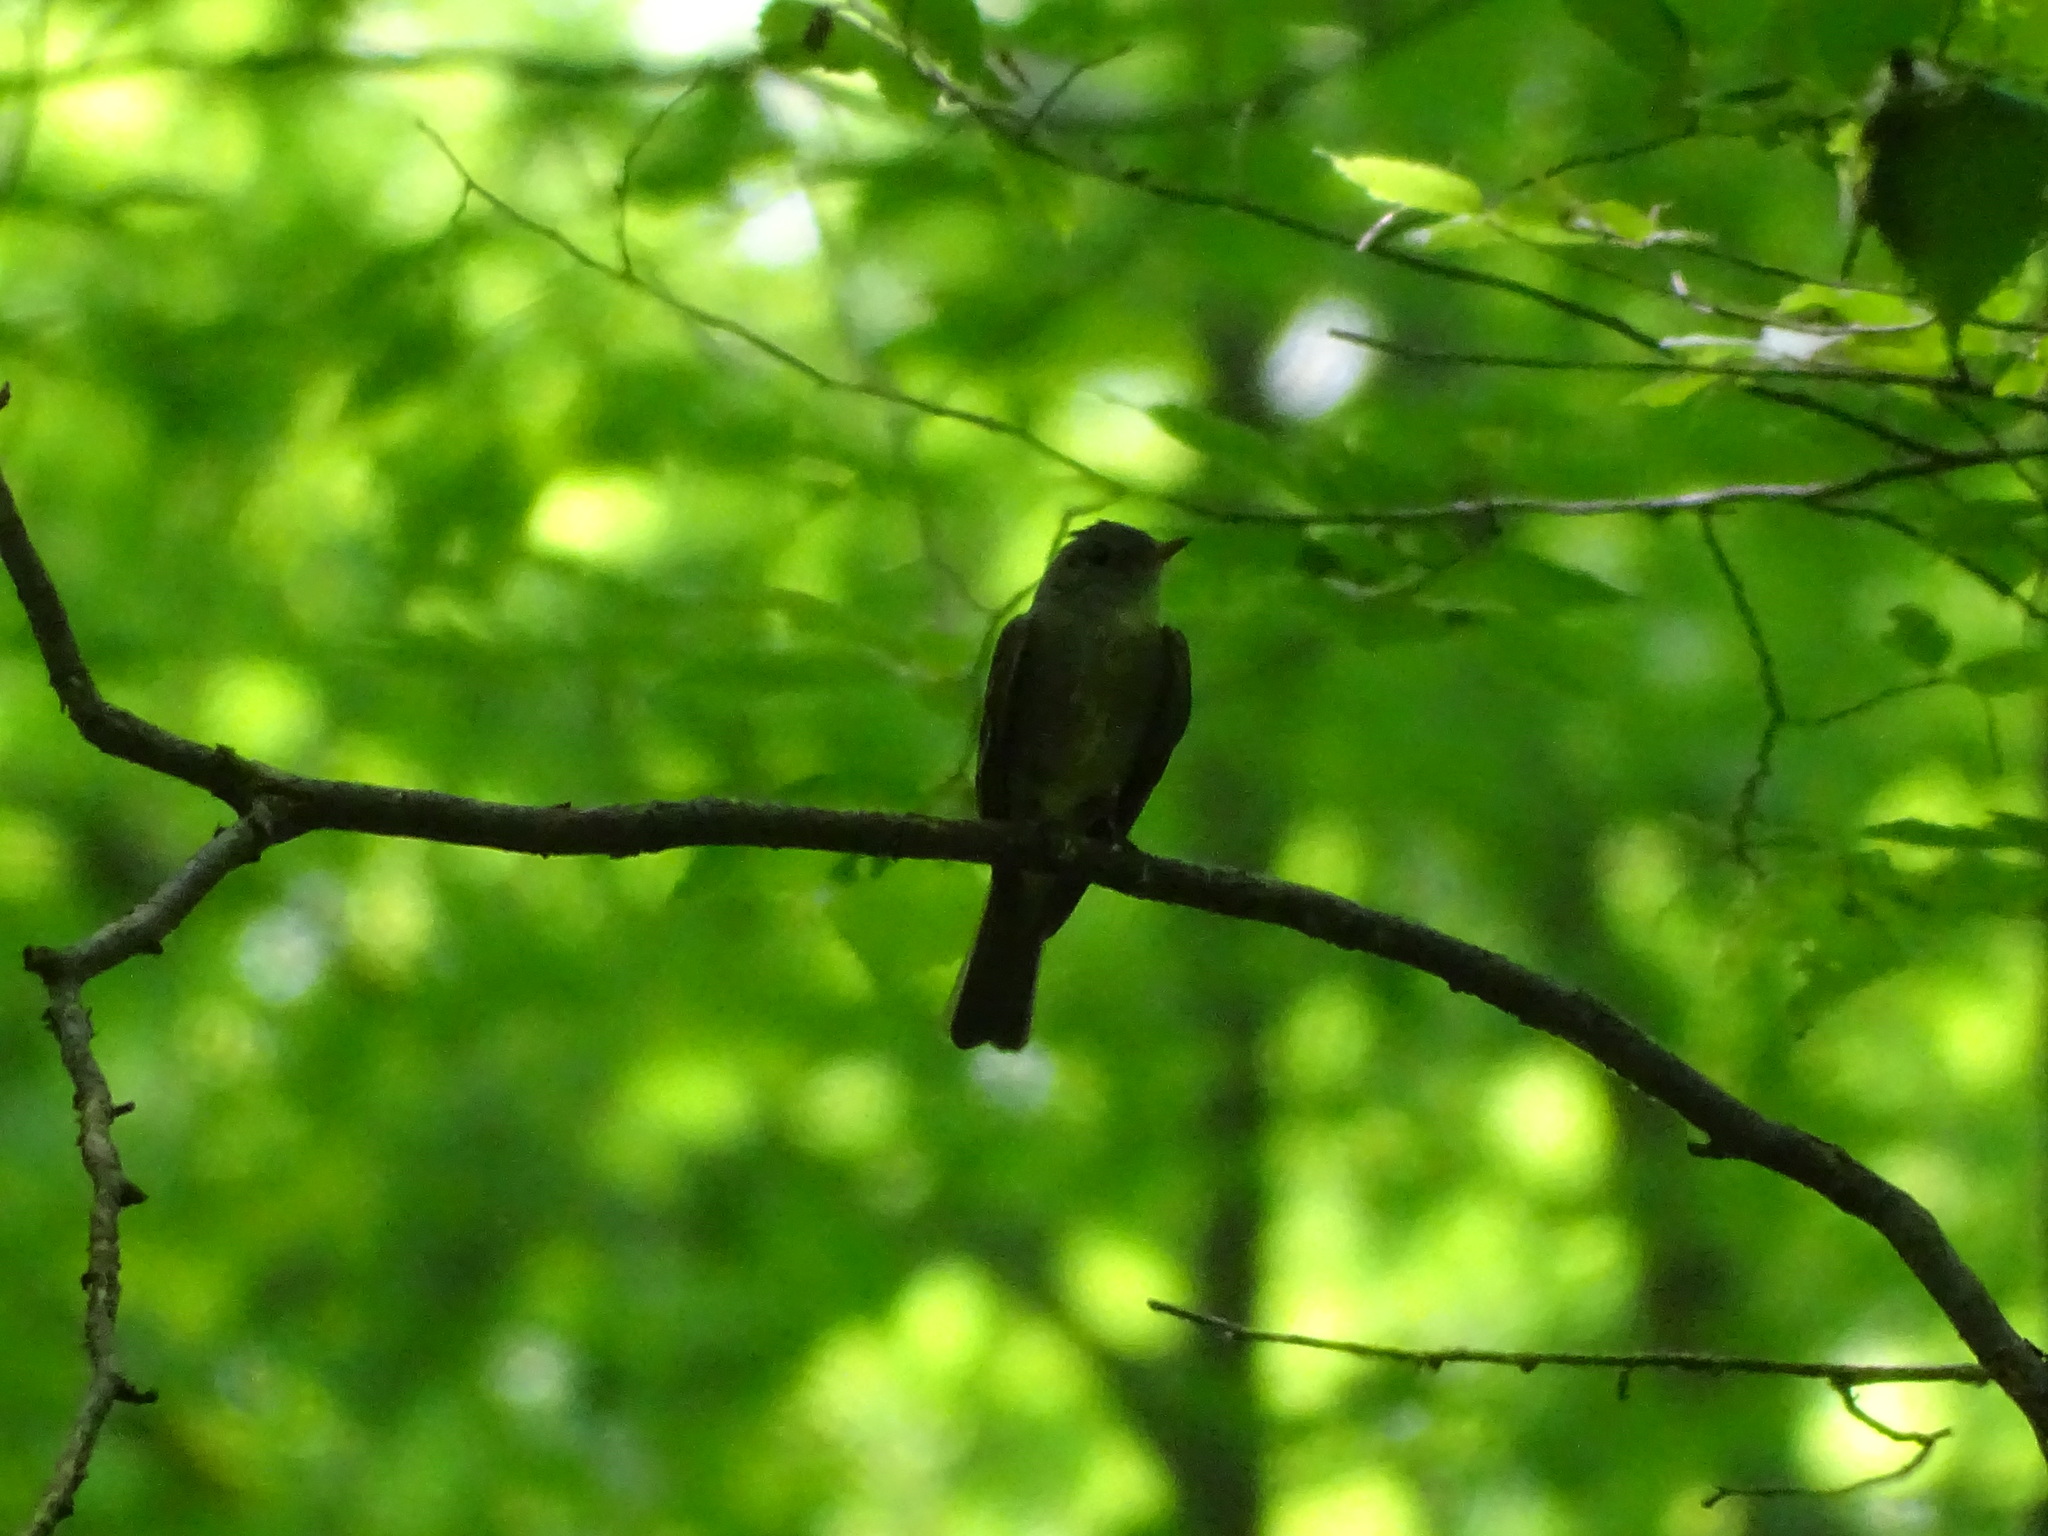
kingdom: Animalia
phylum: Chordata
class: Aves
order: Passeriformes
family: Tyrannidae
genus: Contopus
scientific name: Contopus virens
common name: Eastern wood-pewee
